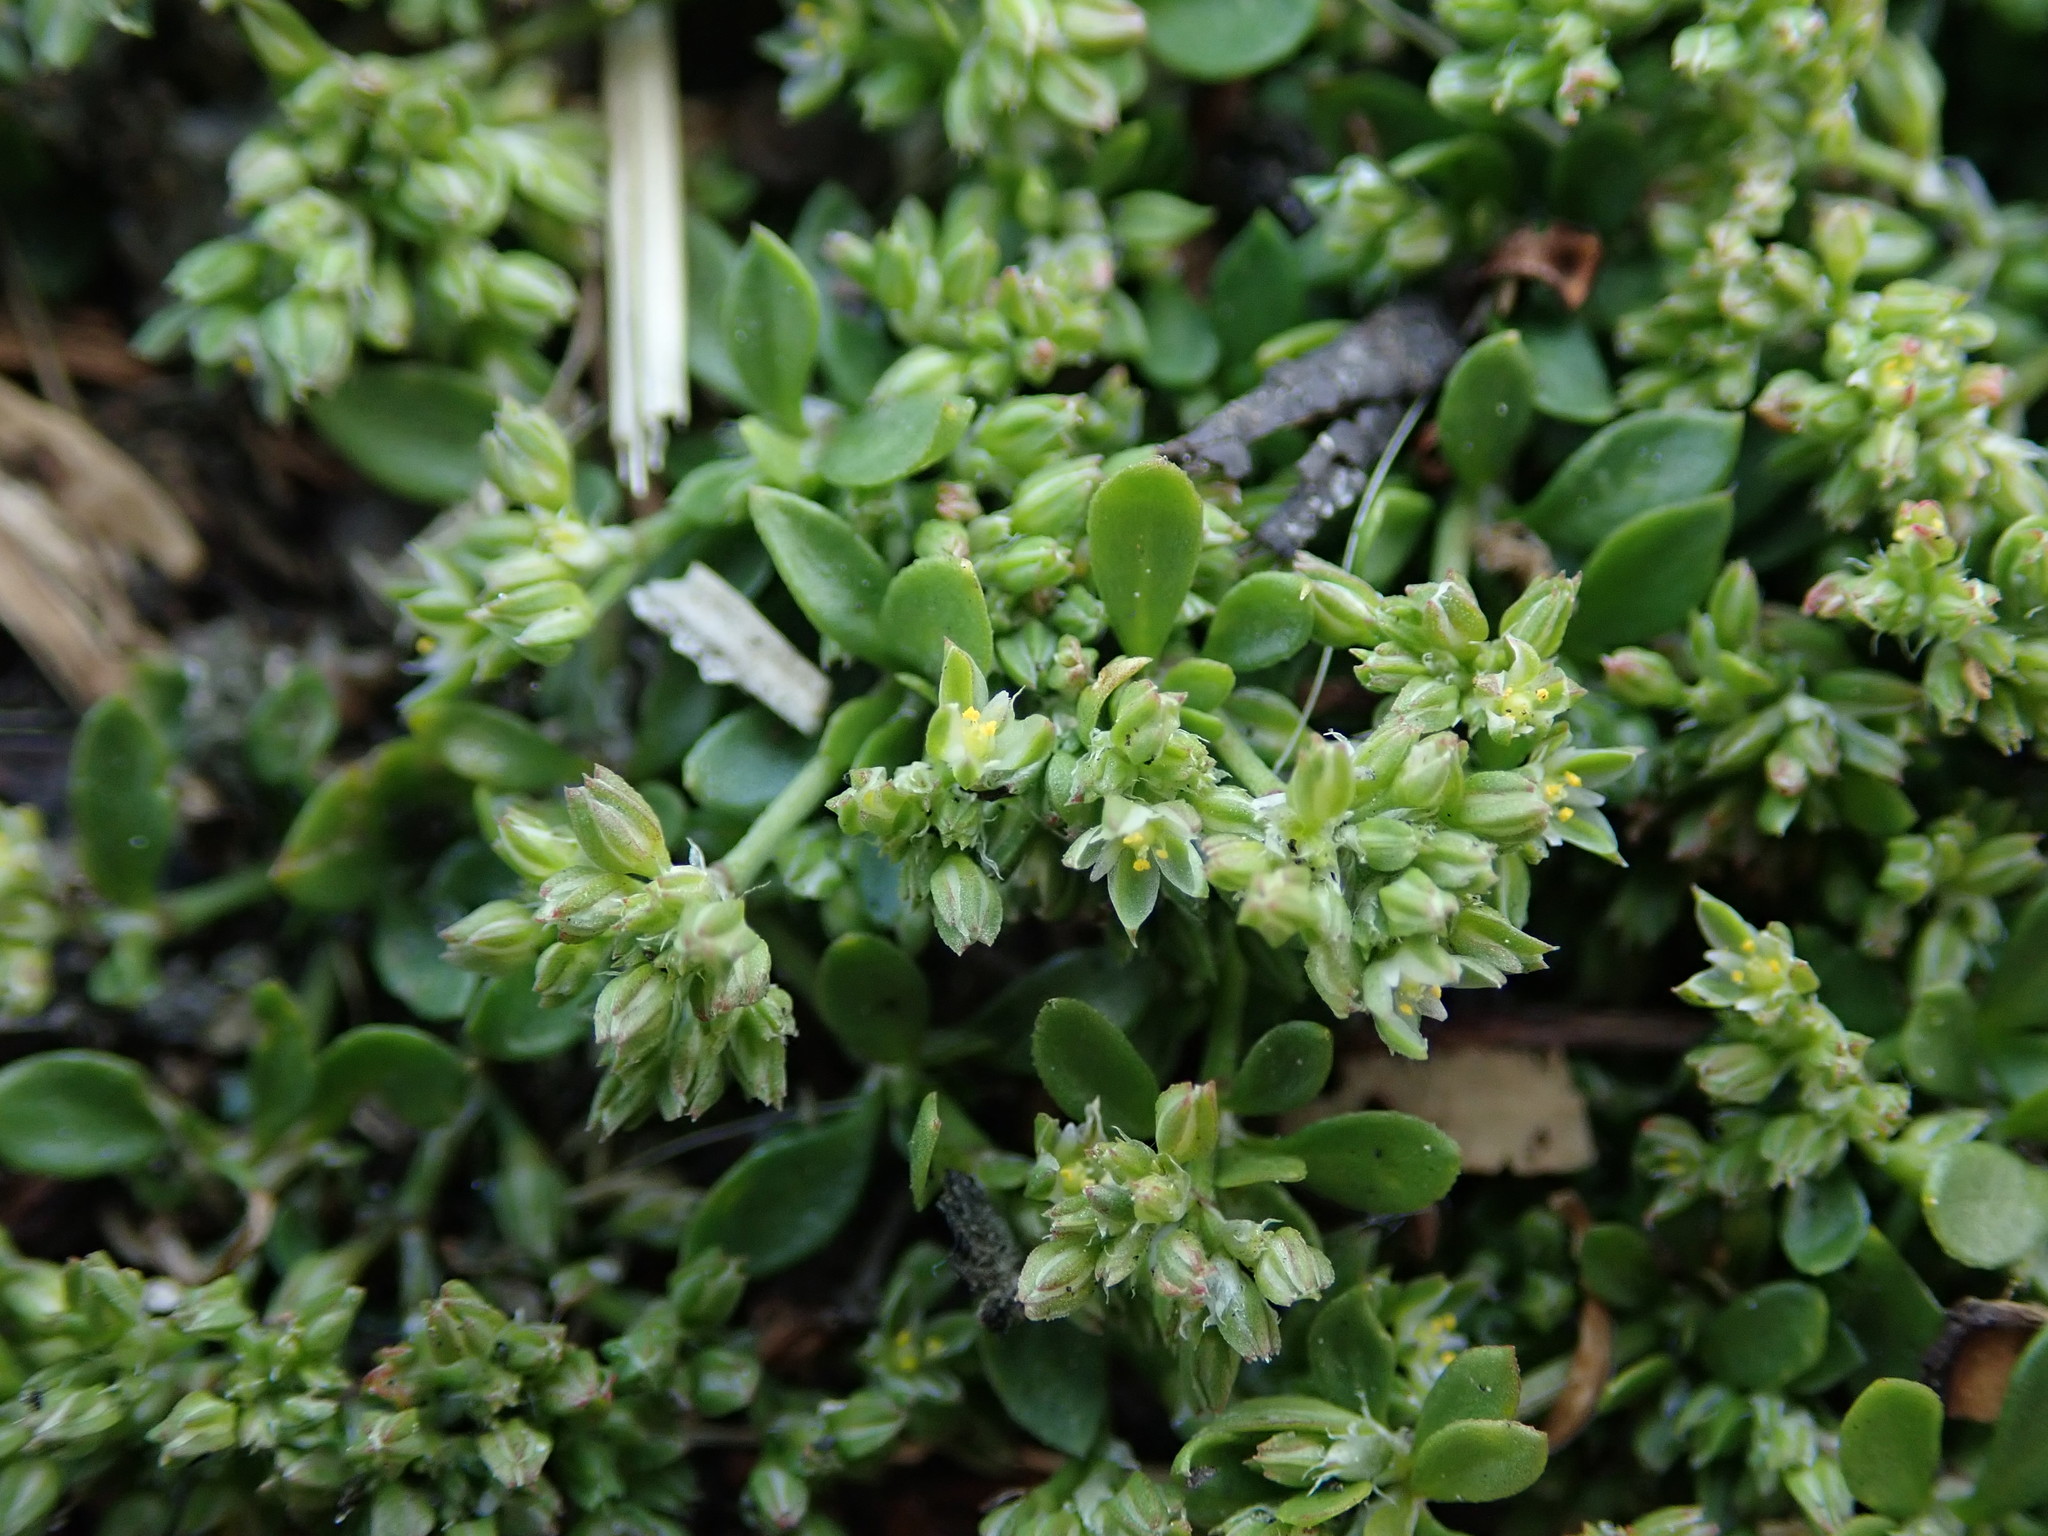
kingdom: Plantae
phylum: Tracheophyta
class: Magnoliopsida
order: Caryophyllales
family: Caryophyllaceae
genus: Polycarpon
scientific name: Polycarpon tetraphyllum
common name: Four-leaved all-seed
